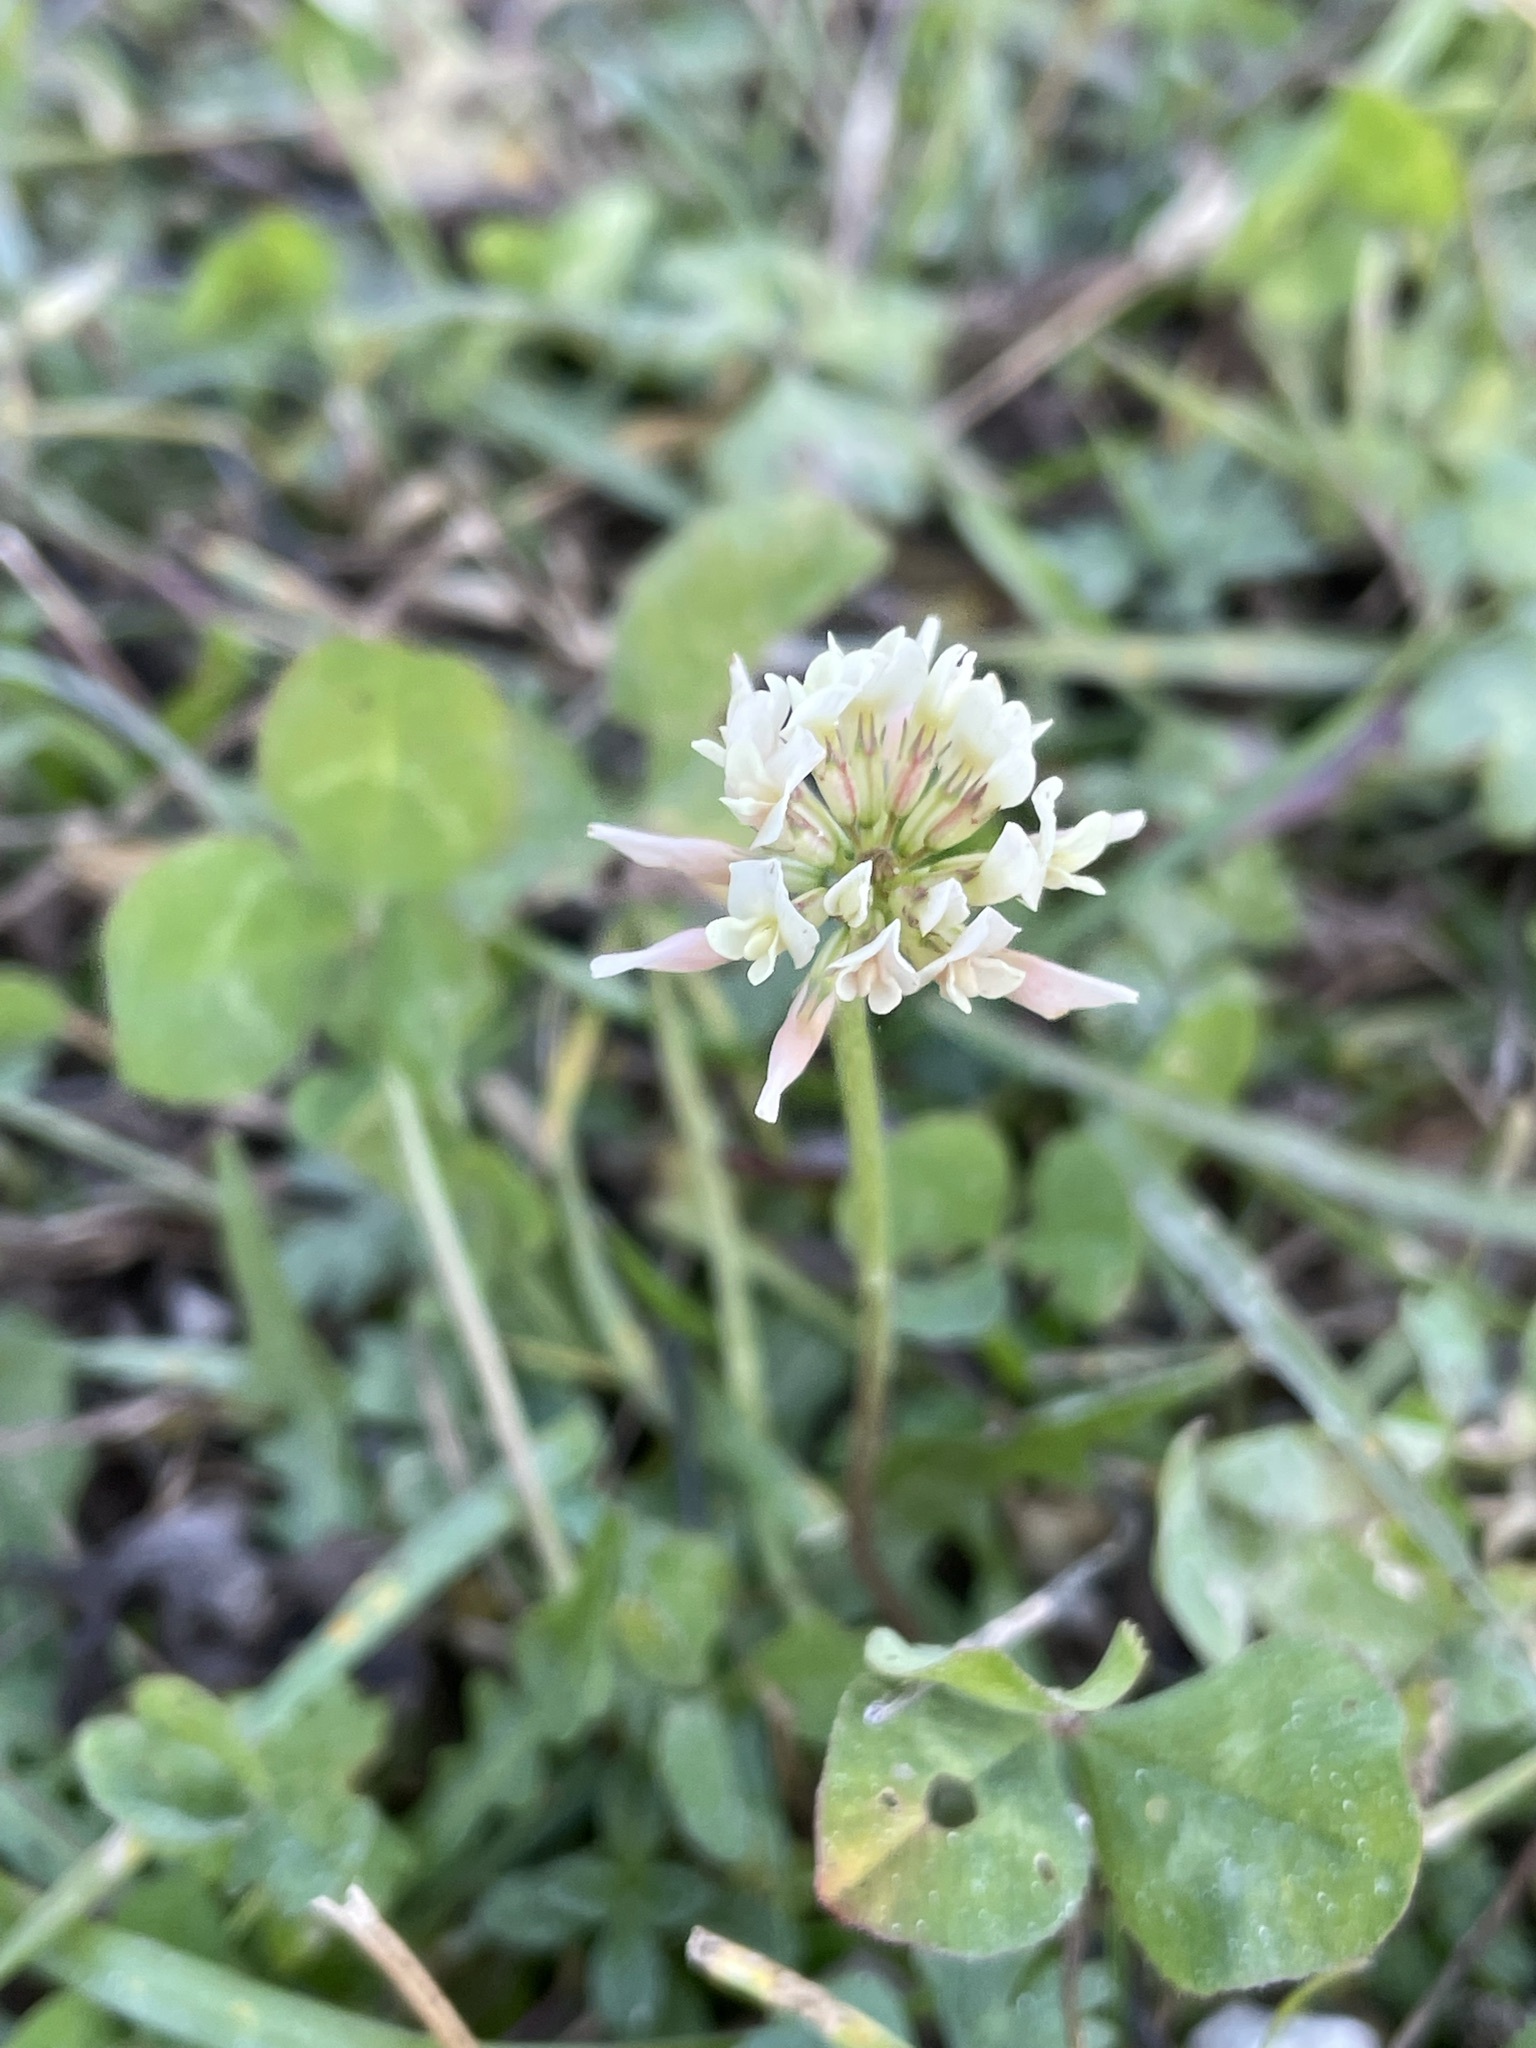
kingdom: Plantae
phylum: Tracheophyta
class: Magnoliopsida
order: Fabales
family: Fabaceae
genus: Trifolium
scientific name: Trifolium repens
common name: White clover
